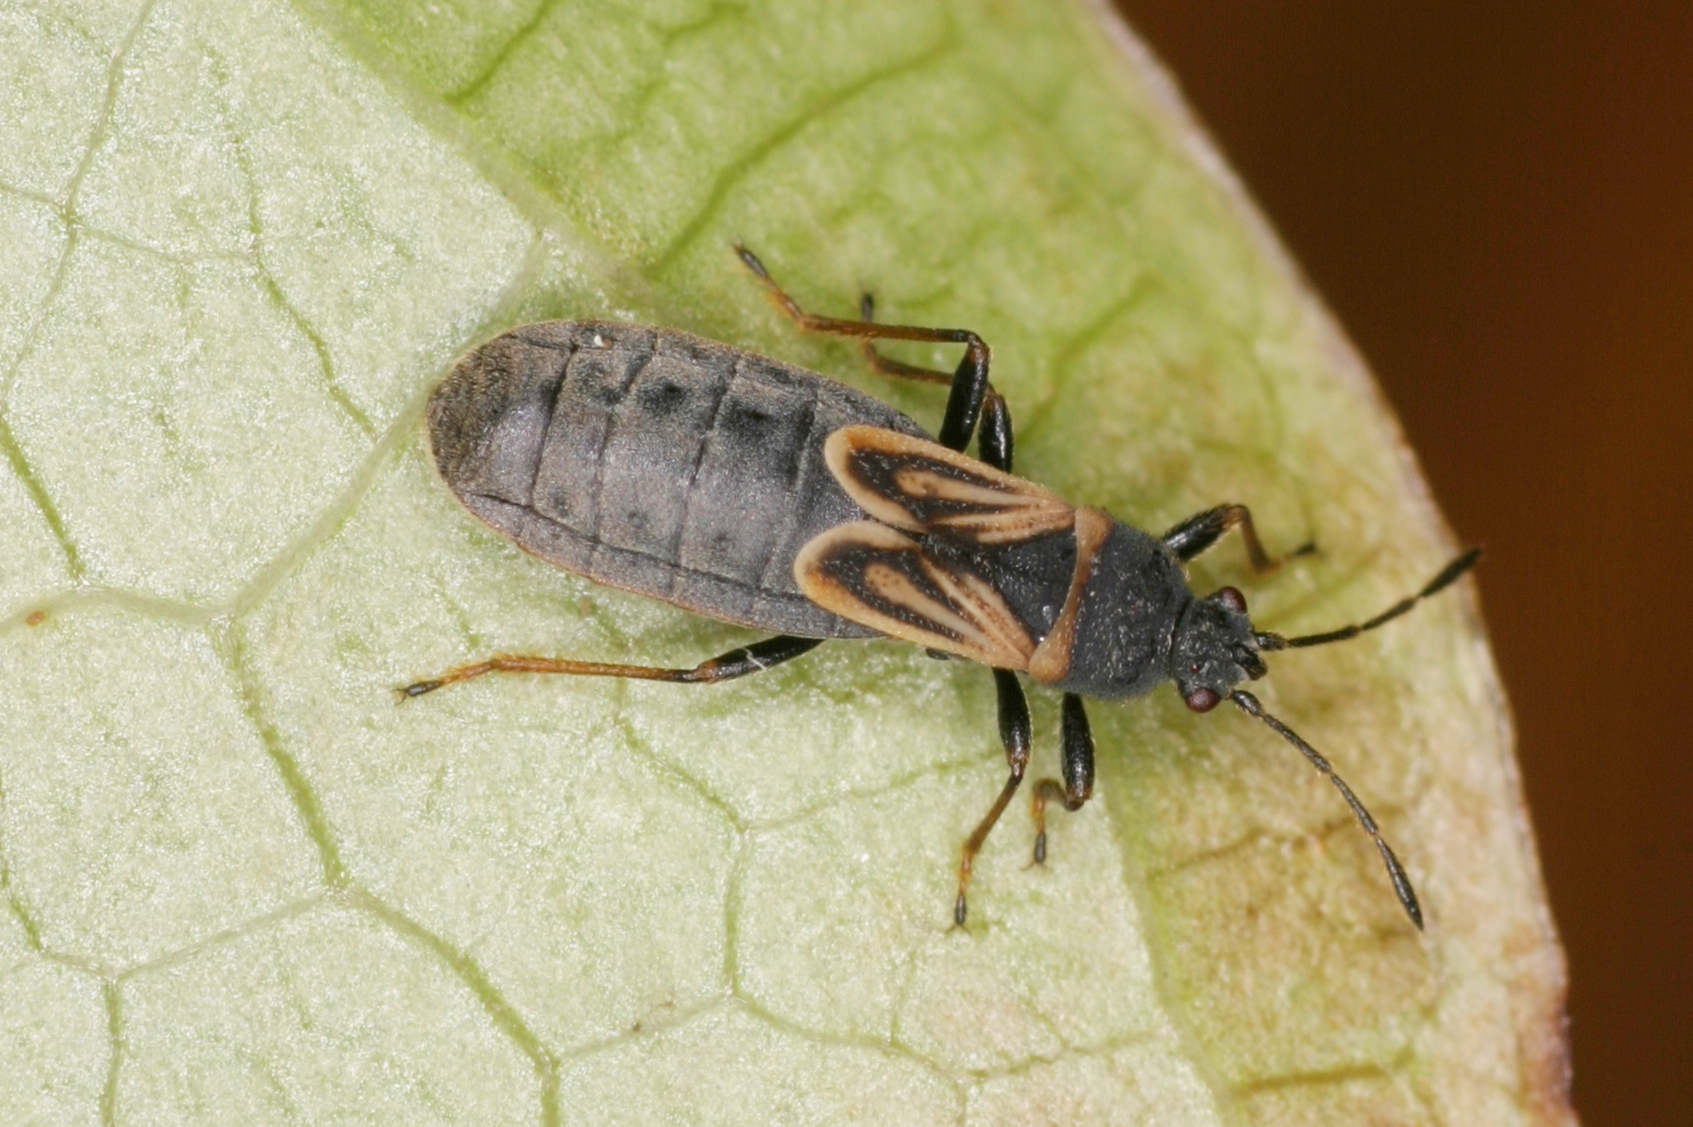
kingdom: Animalia
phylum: Arthropoda
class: Insecta
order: Hemiptera
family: Blissidae
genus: Ischnodemus
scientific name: Ischnodemus sabuleti
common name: European cinchbug
